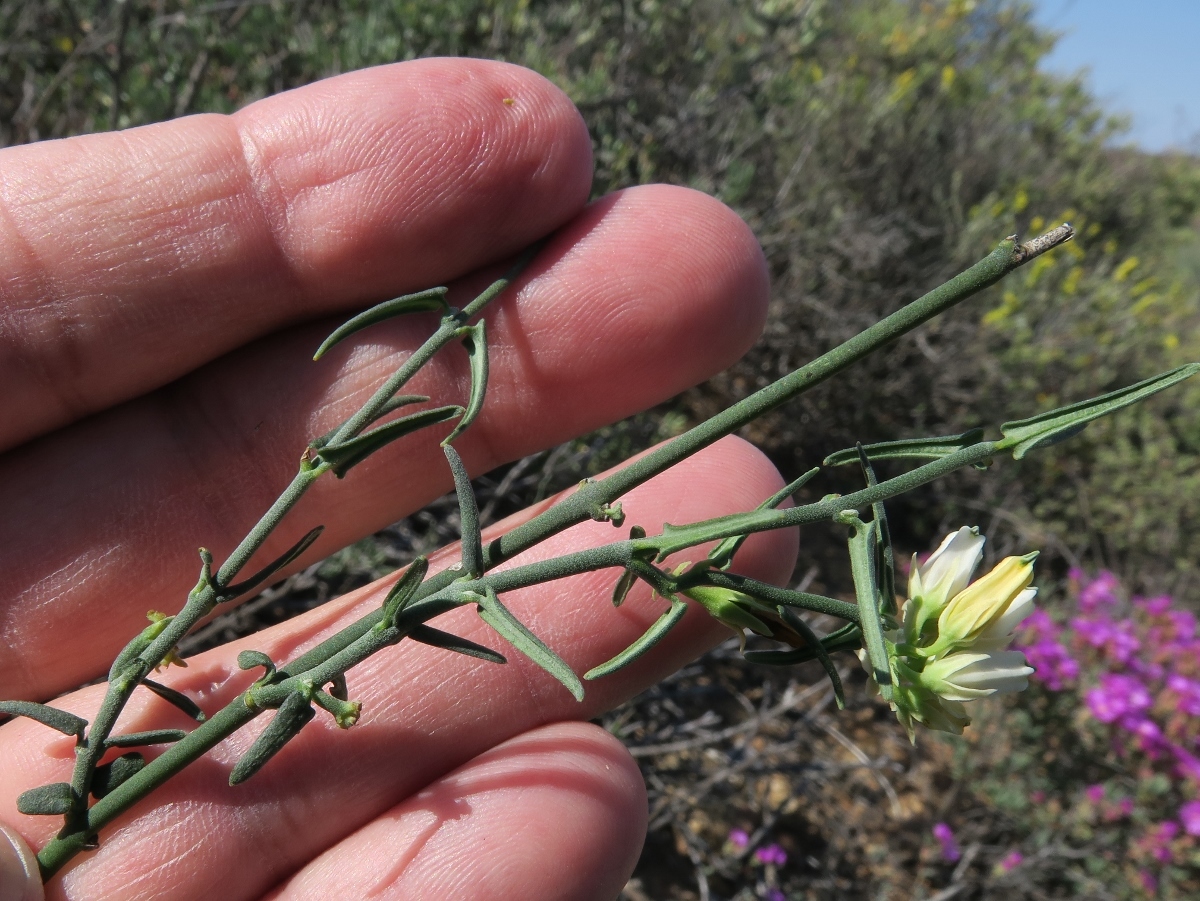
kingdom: Plantae
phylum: Tracheophyta
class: Magnoliopsida
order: Gentianales
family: Apocynaceae
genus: Microloma
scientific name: Microloma sagittatum
